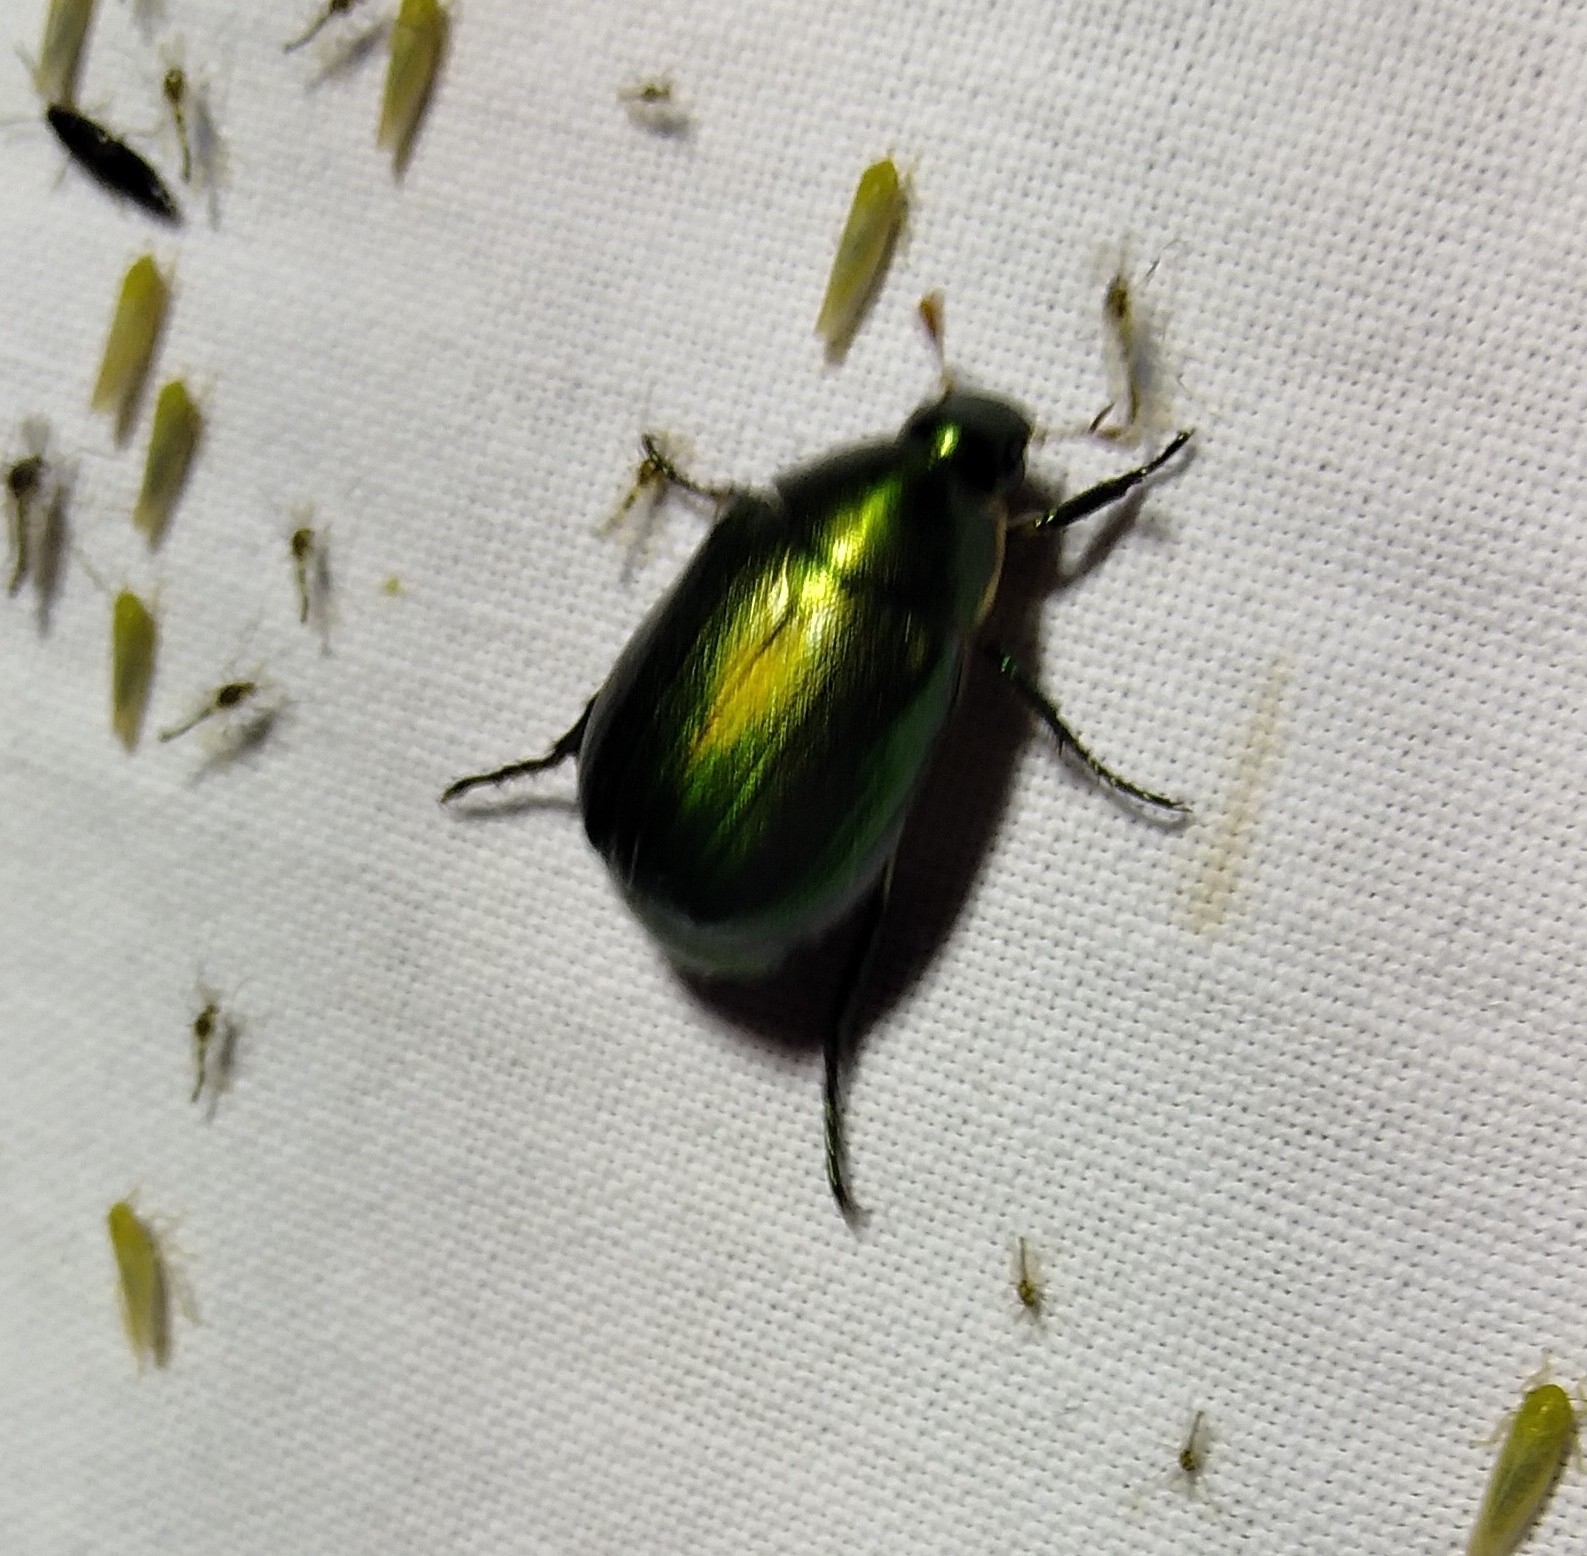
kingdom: Animalia
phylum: Arthropoda
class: Insecta
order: Coleoptera
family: Scarabaeidae
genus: Anomala
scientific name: Anomala vitis
